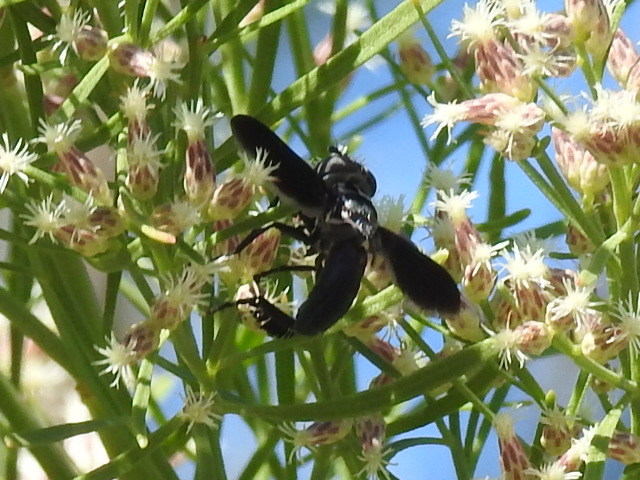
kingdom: Animalia
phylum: Arthropoda
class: Insecta
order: Diptera
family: Tachinidae
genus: Trichopoda
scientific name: Trichopoda lanipes
